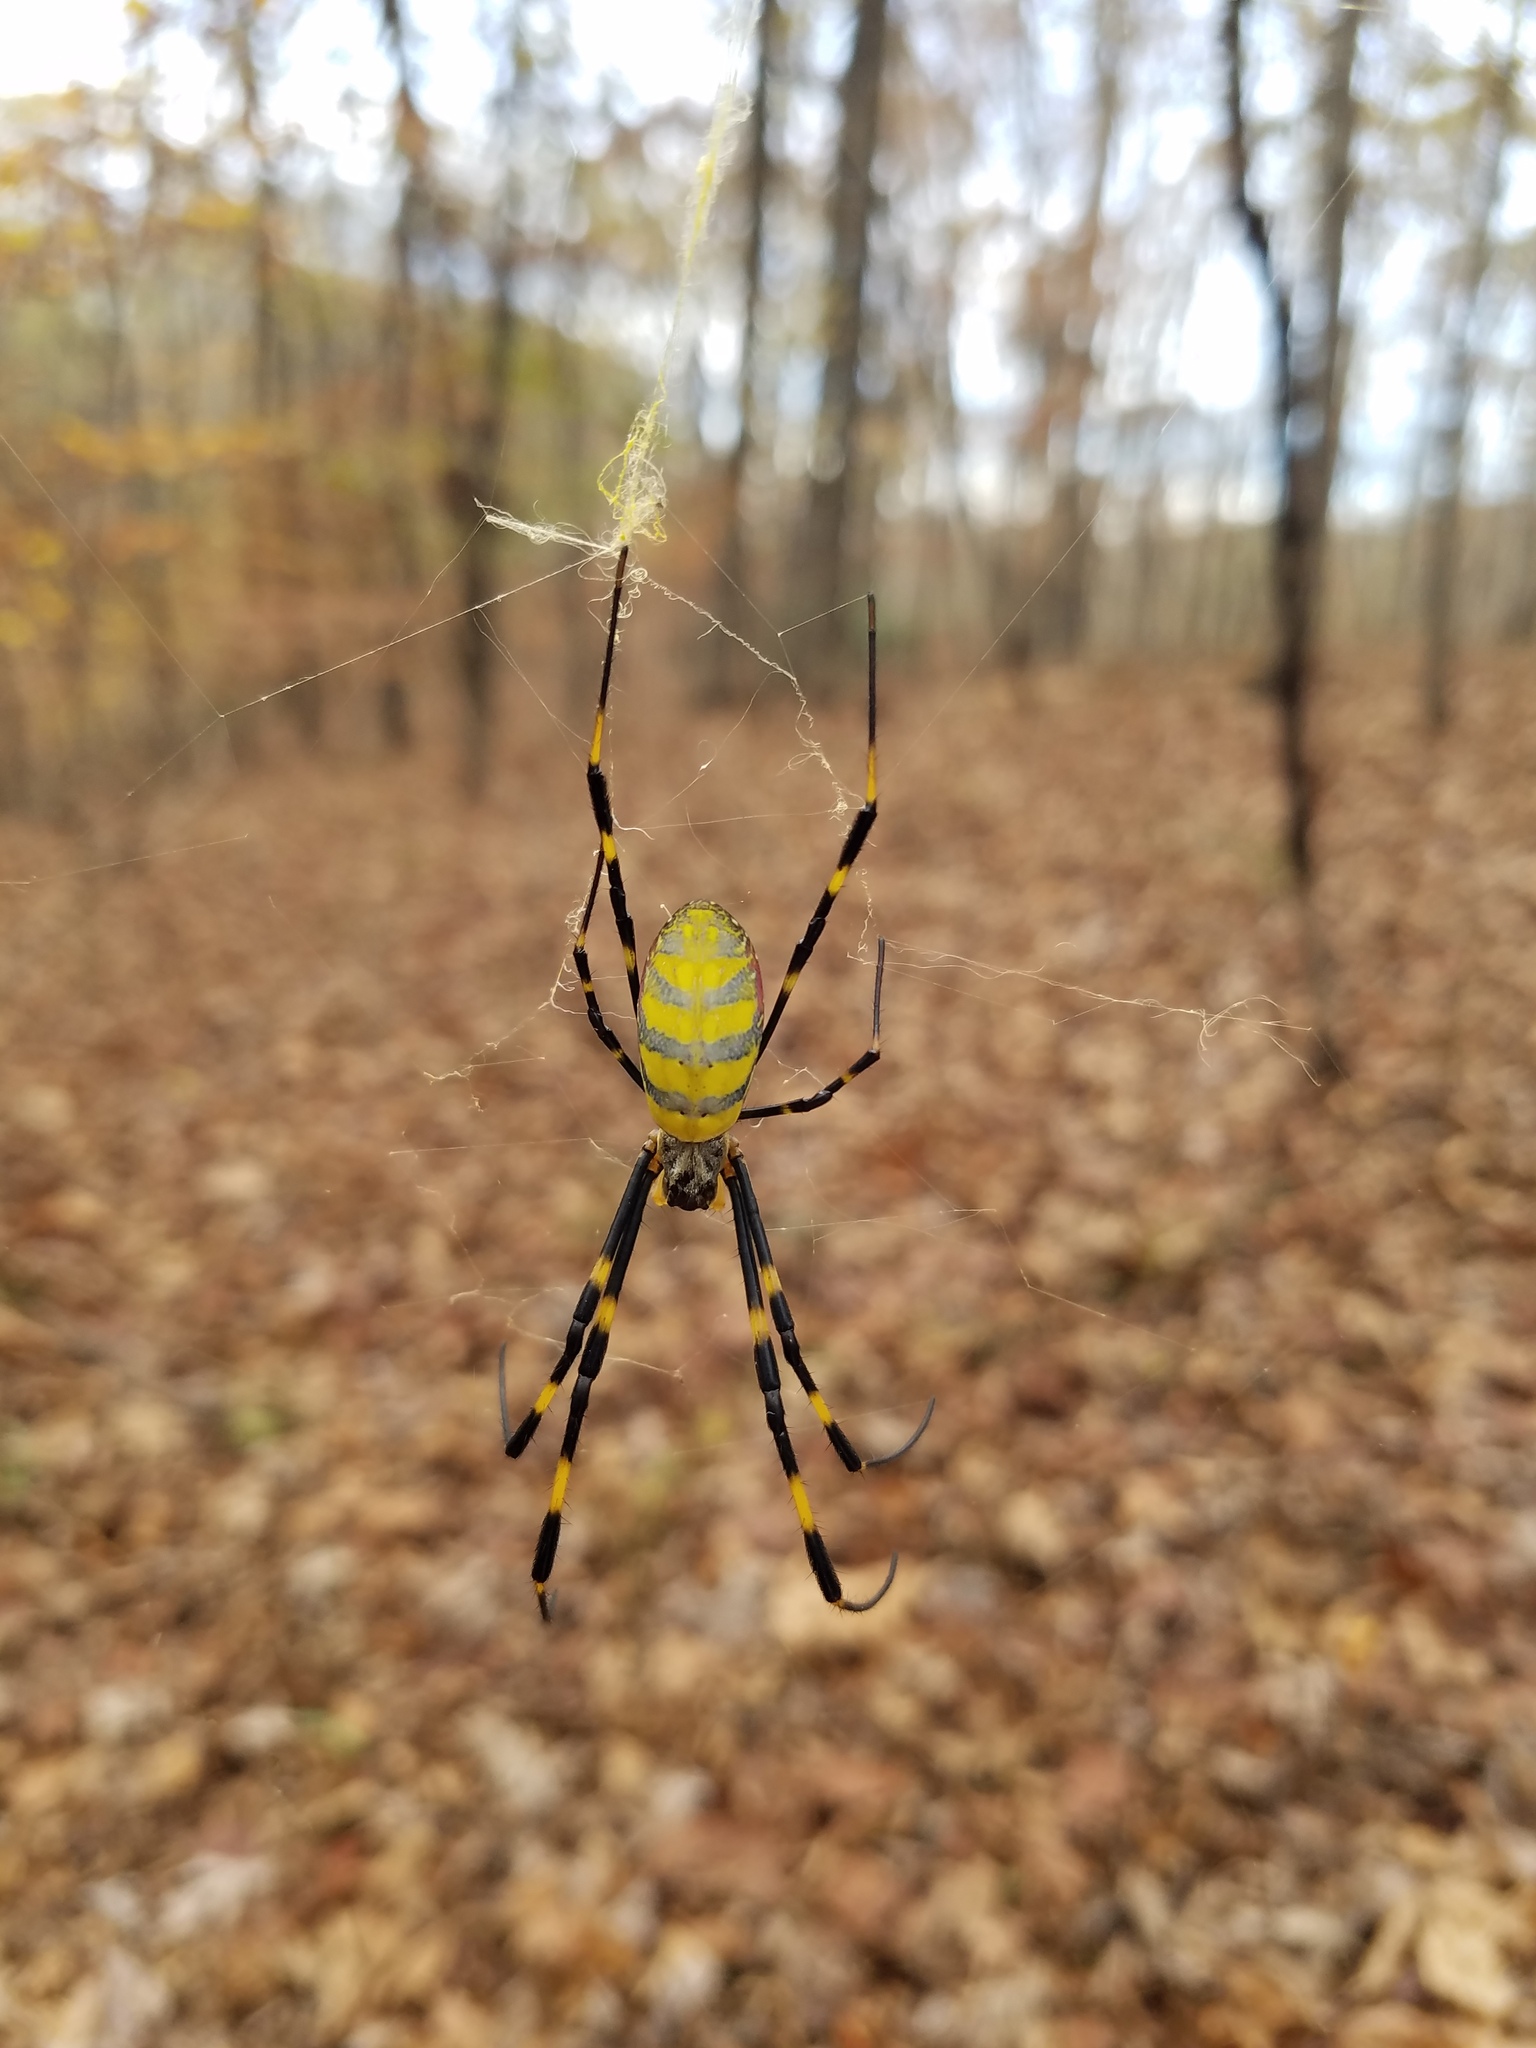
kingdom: Animalia
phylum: Arthropoda
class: Arachnida
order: Araneae
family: Araneidae
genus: Trichonephila
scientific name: Trichonephila clavata
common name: Jorō spider
